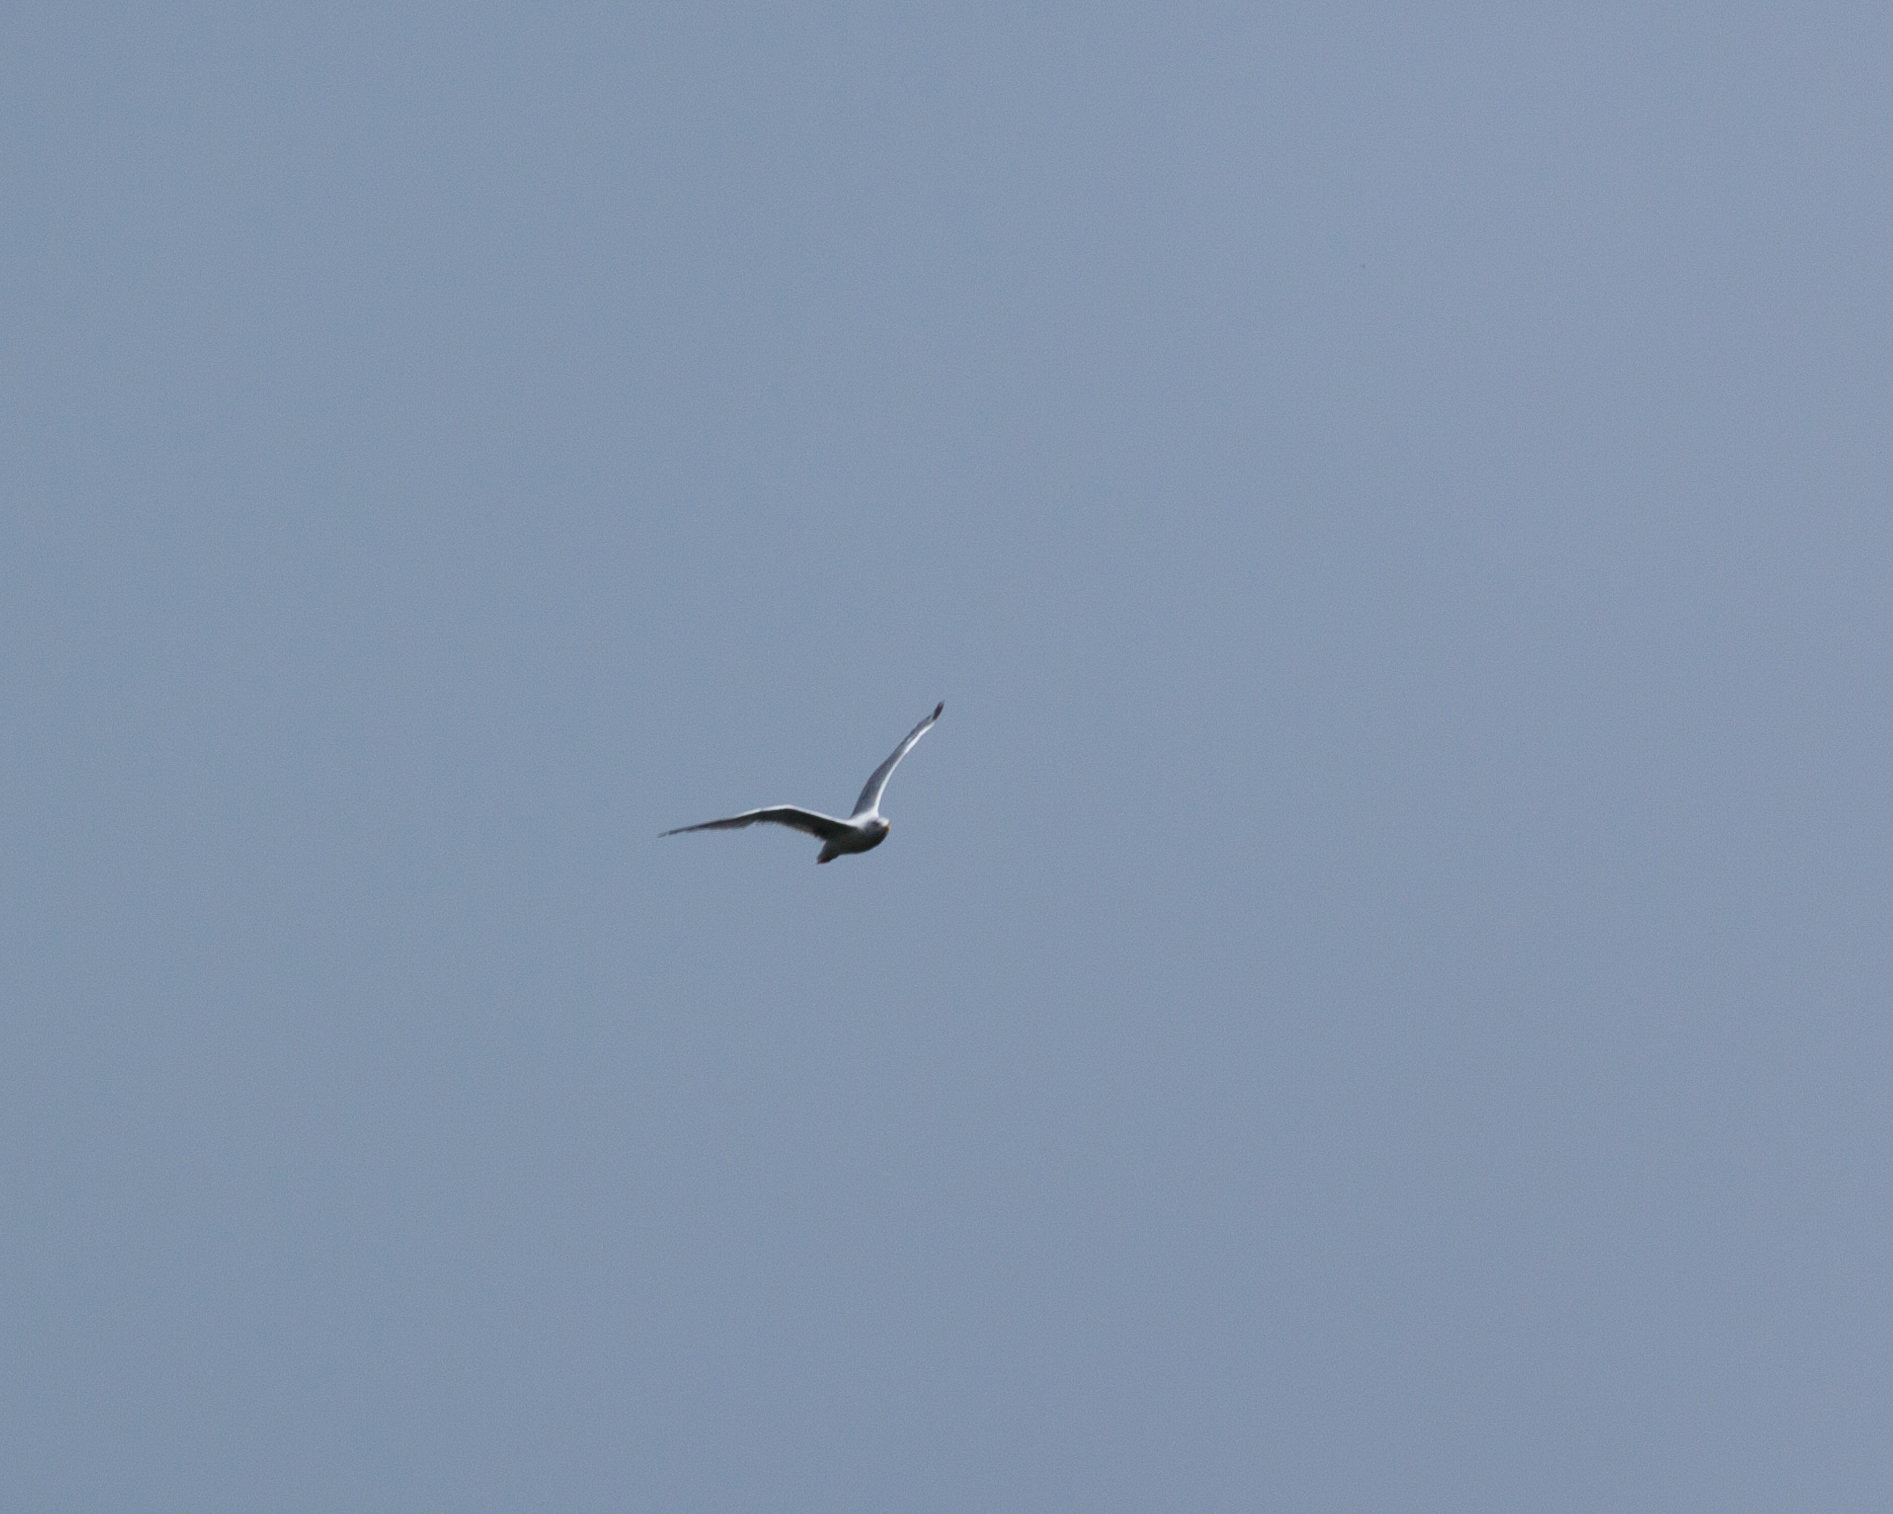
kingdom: Animalia
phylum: Chordata
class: Aves
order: Charadriiformes
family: Laridae
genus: Larus
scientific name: Larus argentatus
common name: Herring gull
